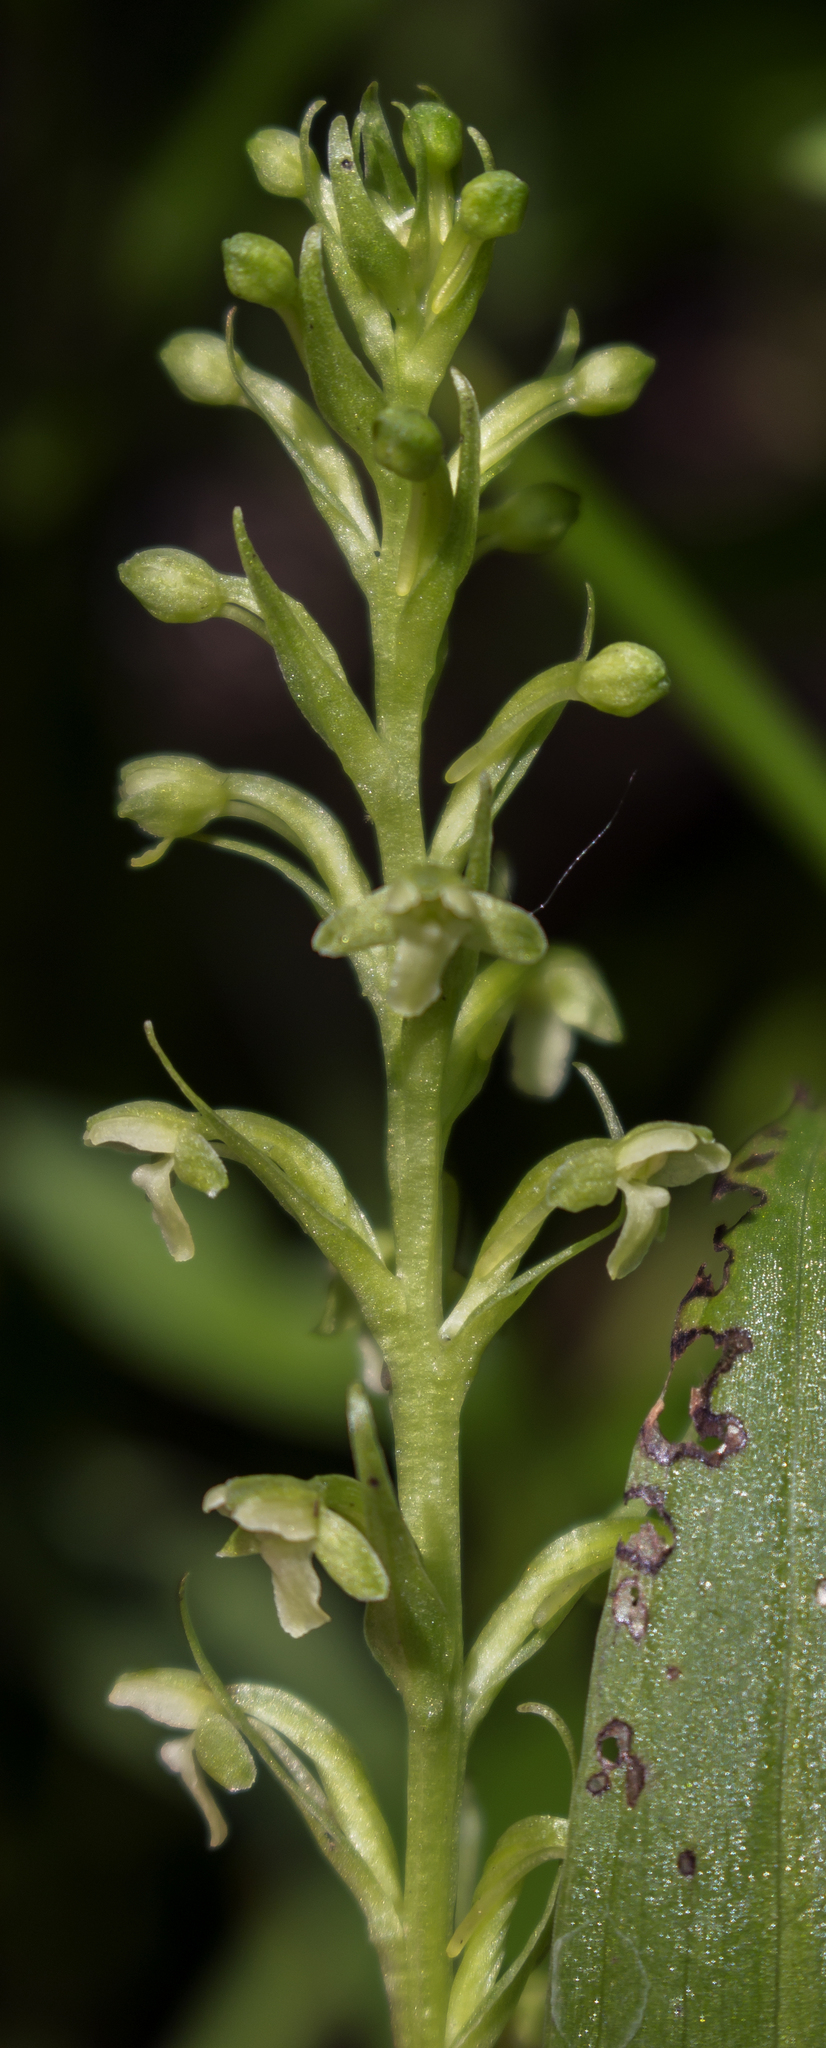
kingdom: Plantae
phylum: Tracheophyta
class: Liliopsida
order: Asparagales
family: Orchidaceae
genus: Platanthera
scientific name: Platanthera flava
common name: Gypsy-spikes
